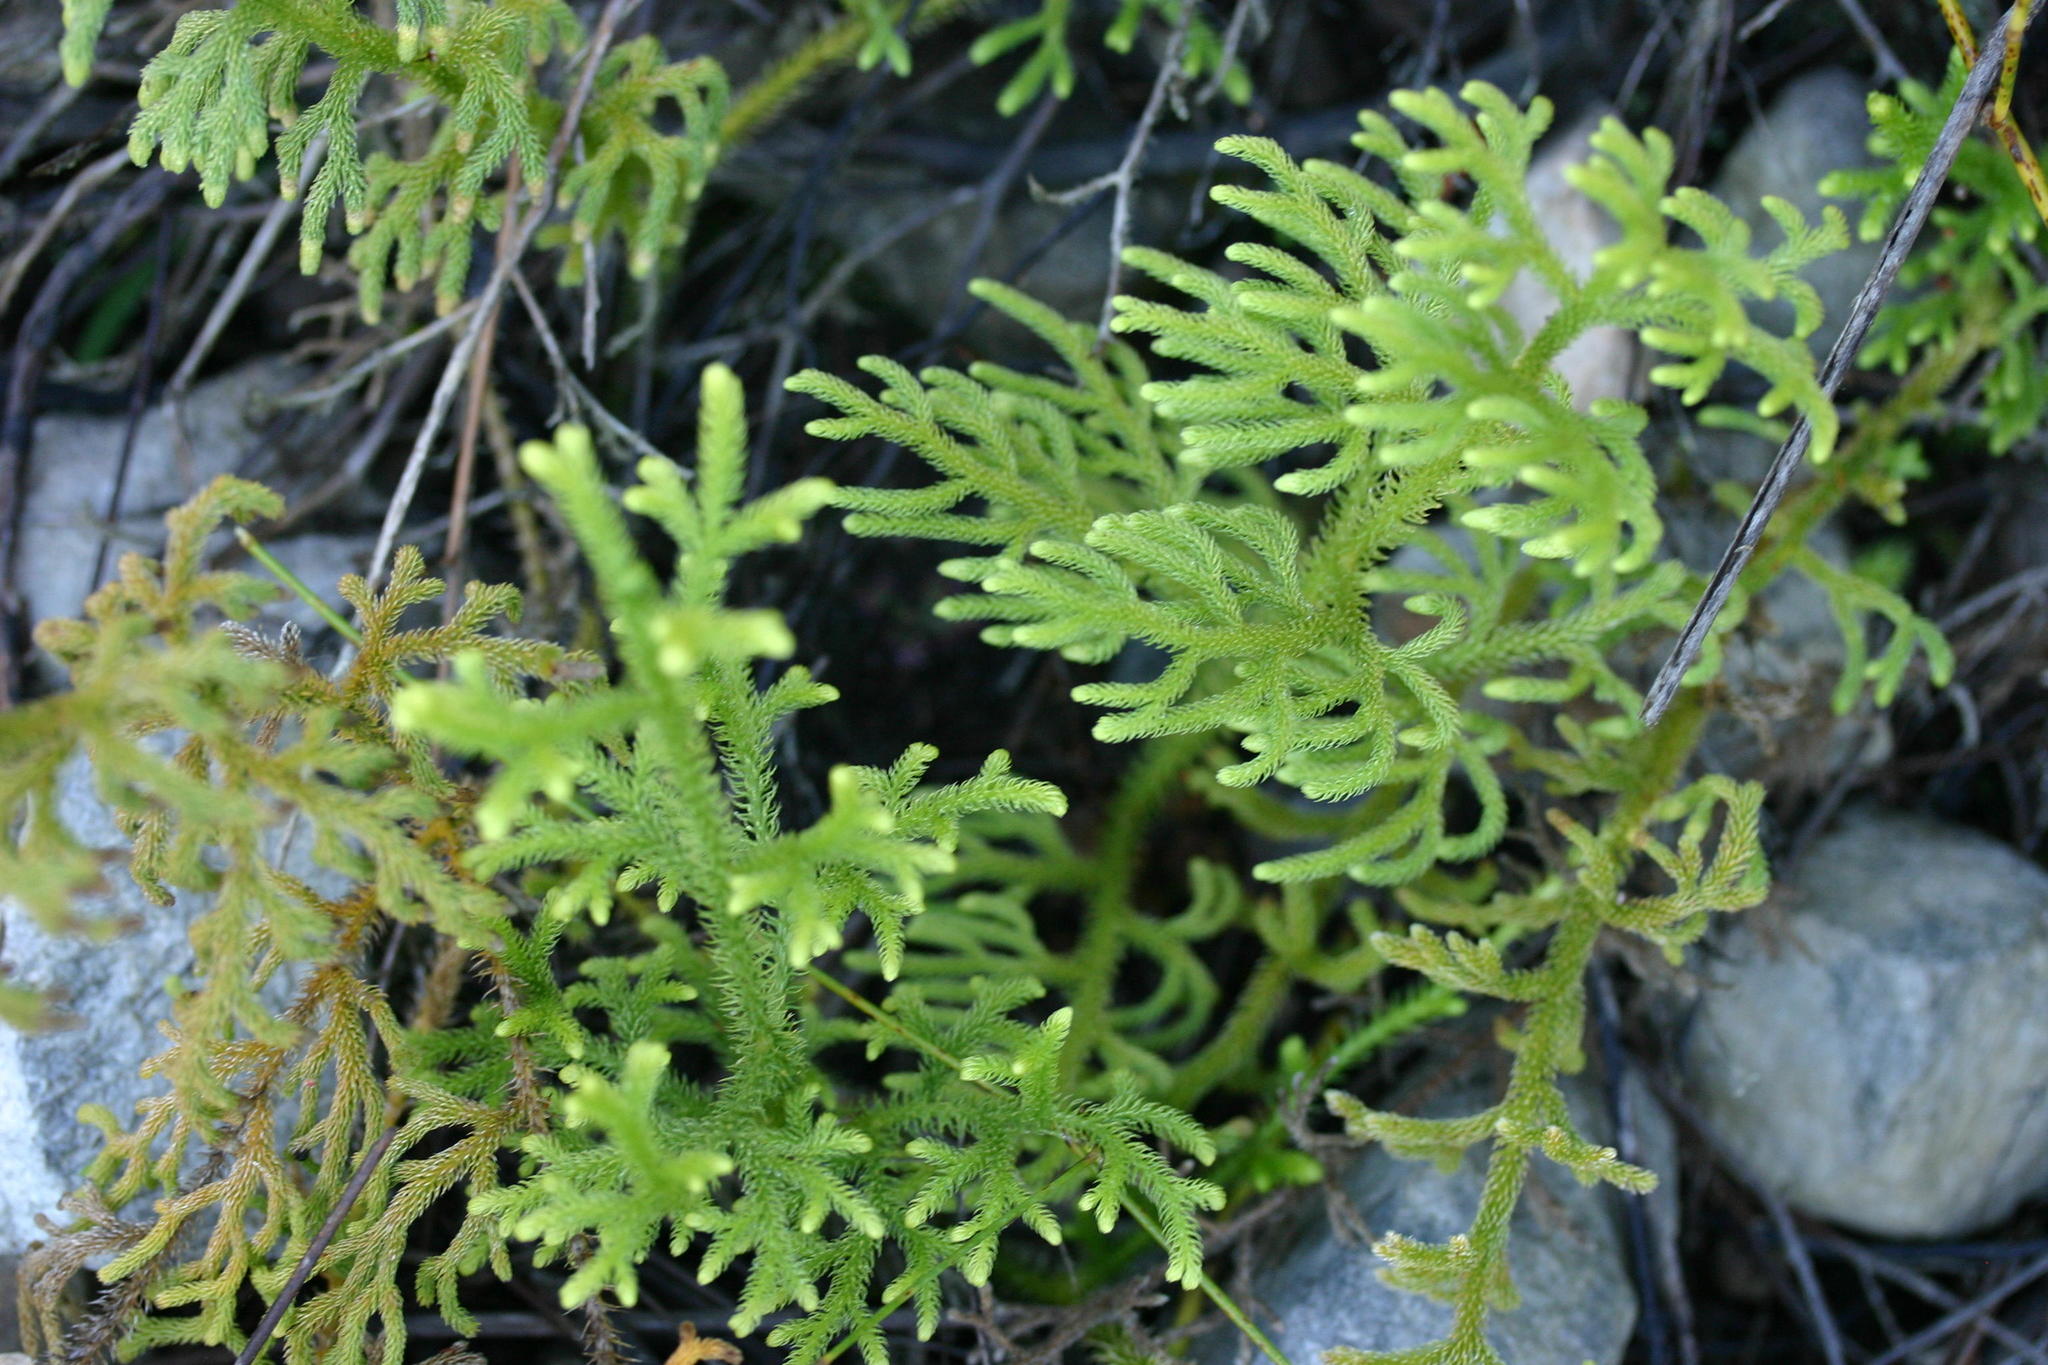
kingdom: Plantae
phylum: Tracheophyta
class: Lycopodiopsida
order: Lycopodiales
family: Lycopodiaceae
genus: Palhinhaea
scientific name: Palhinhaea cernua
